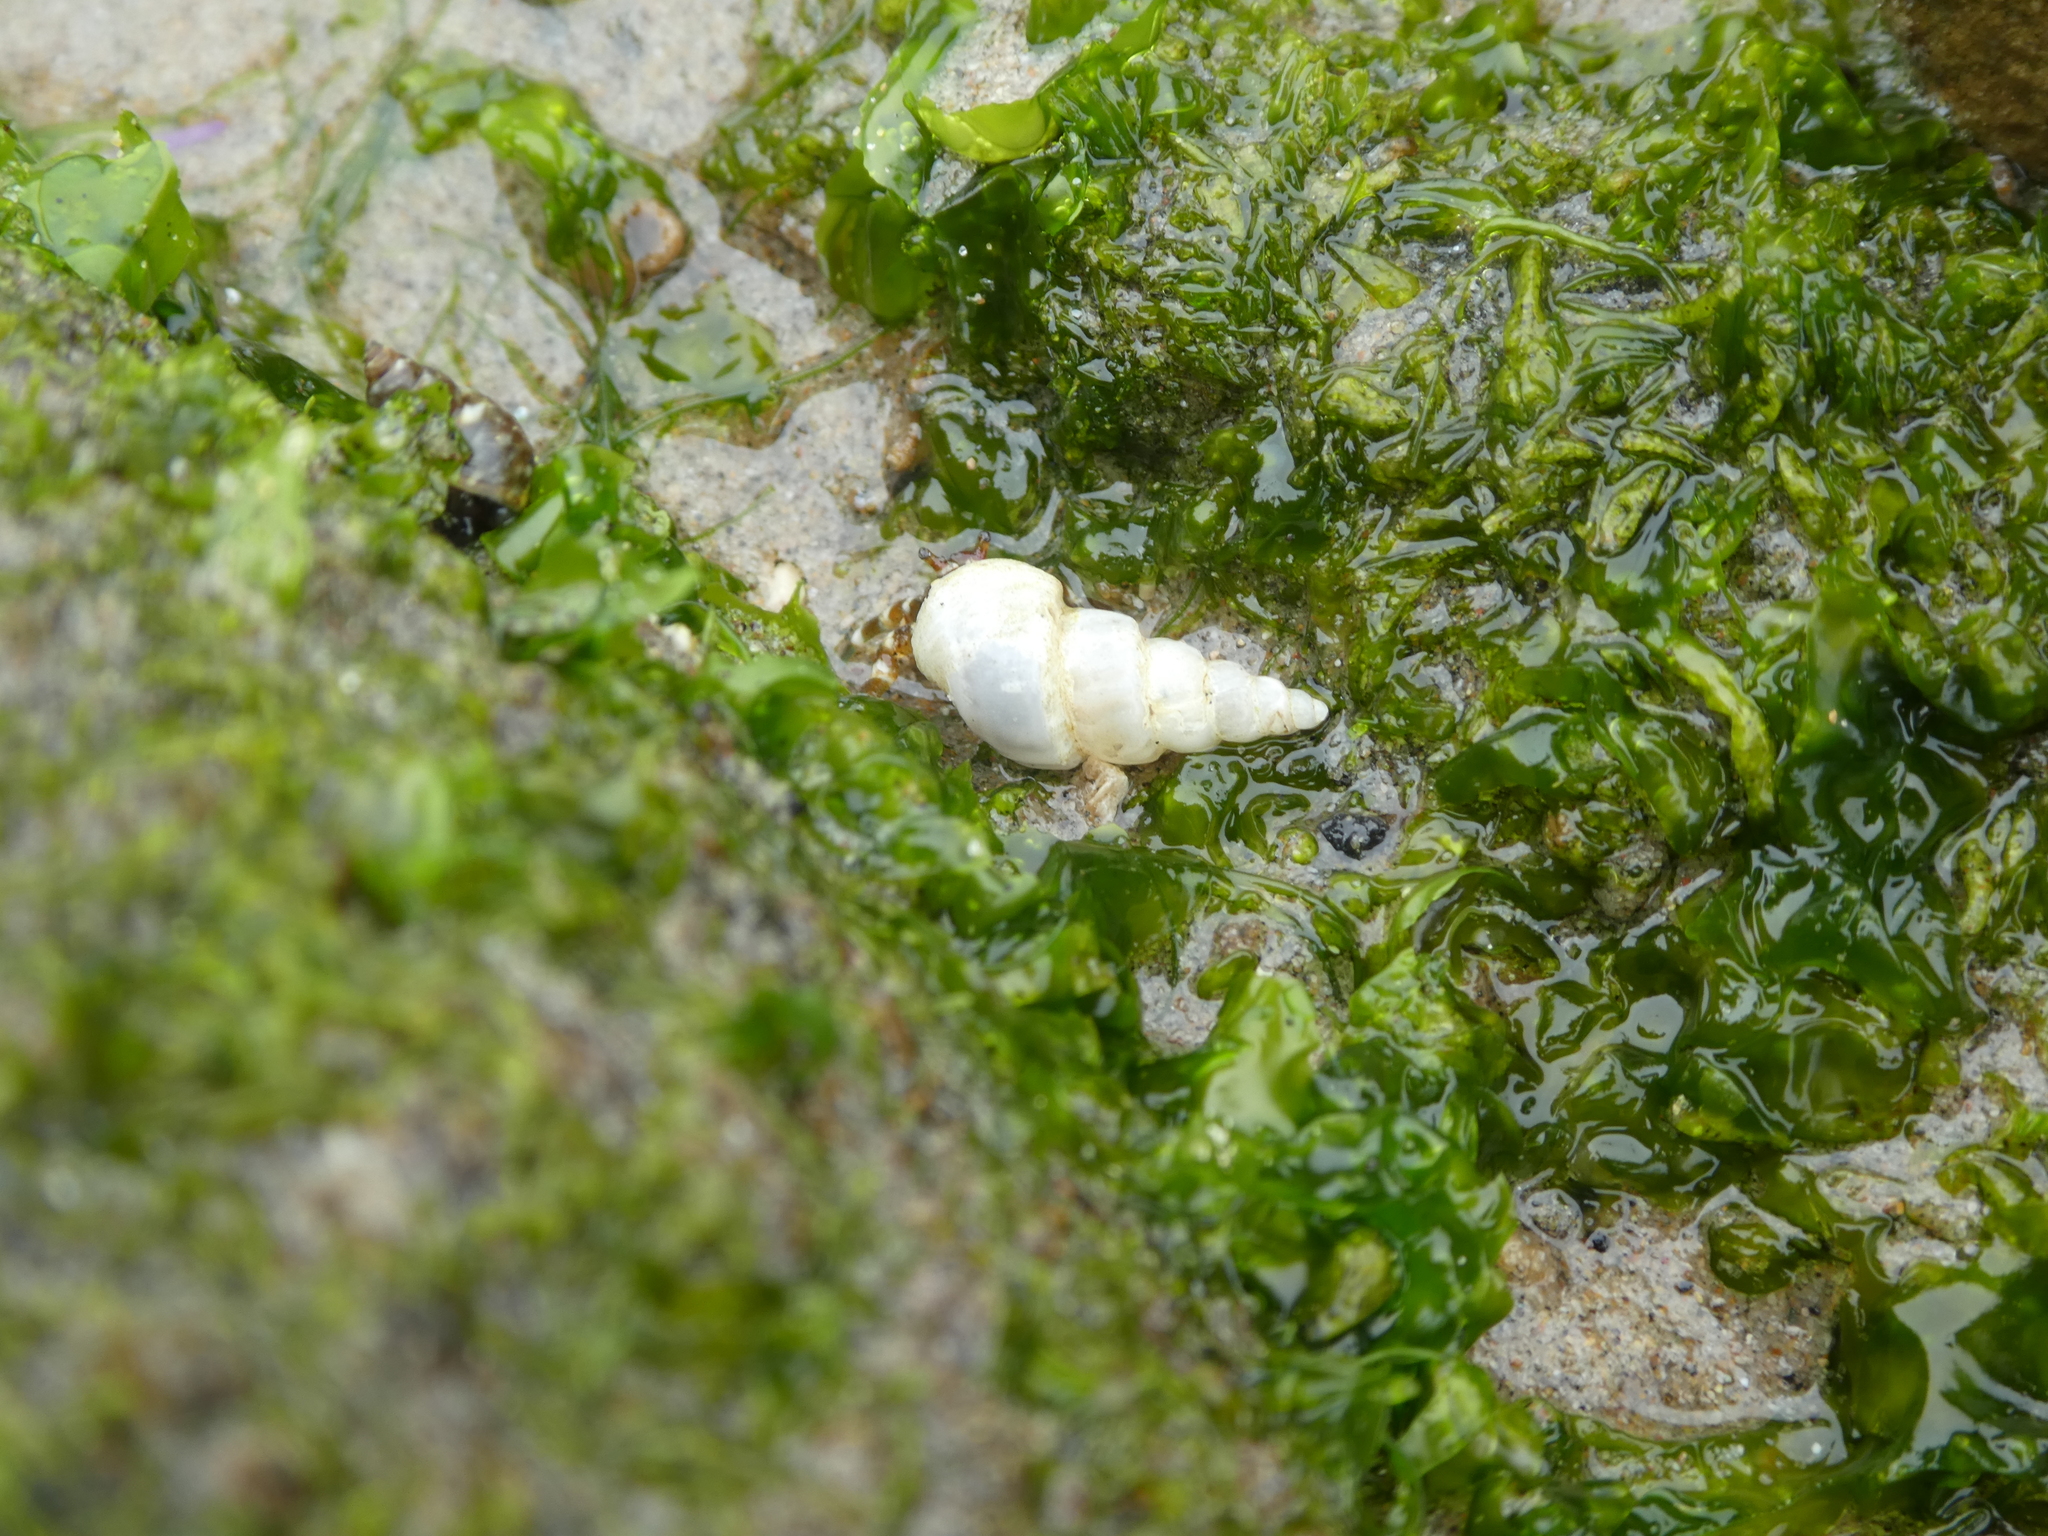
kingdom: Animalia
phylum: Mollusca
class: Gastropoda
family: Epitoniidae
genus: Opalia
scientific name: Opalia funiculata
